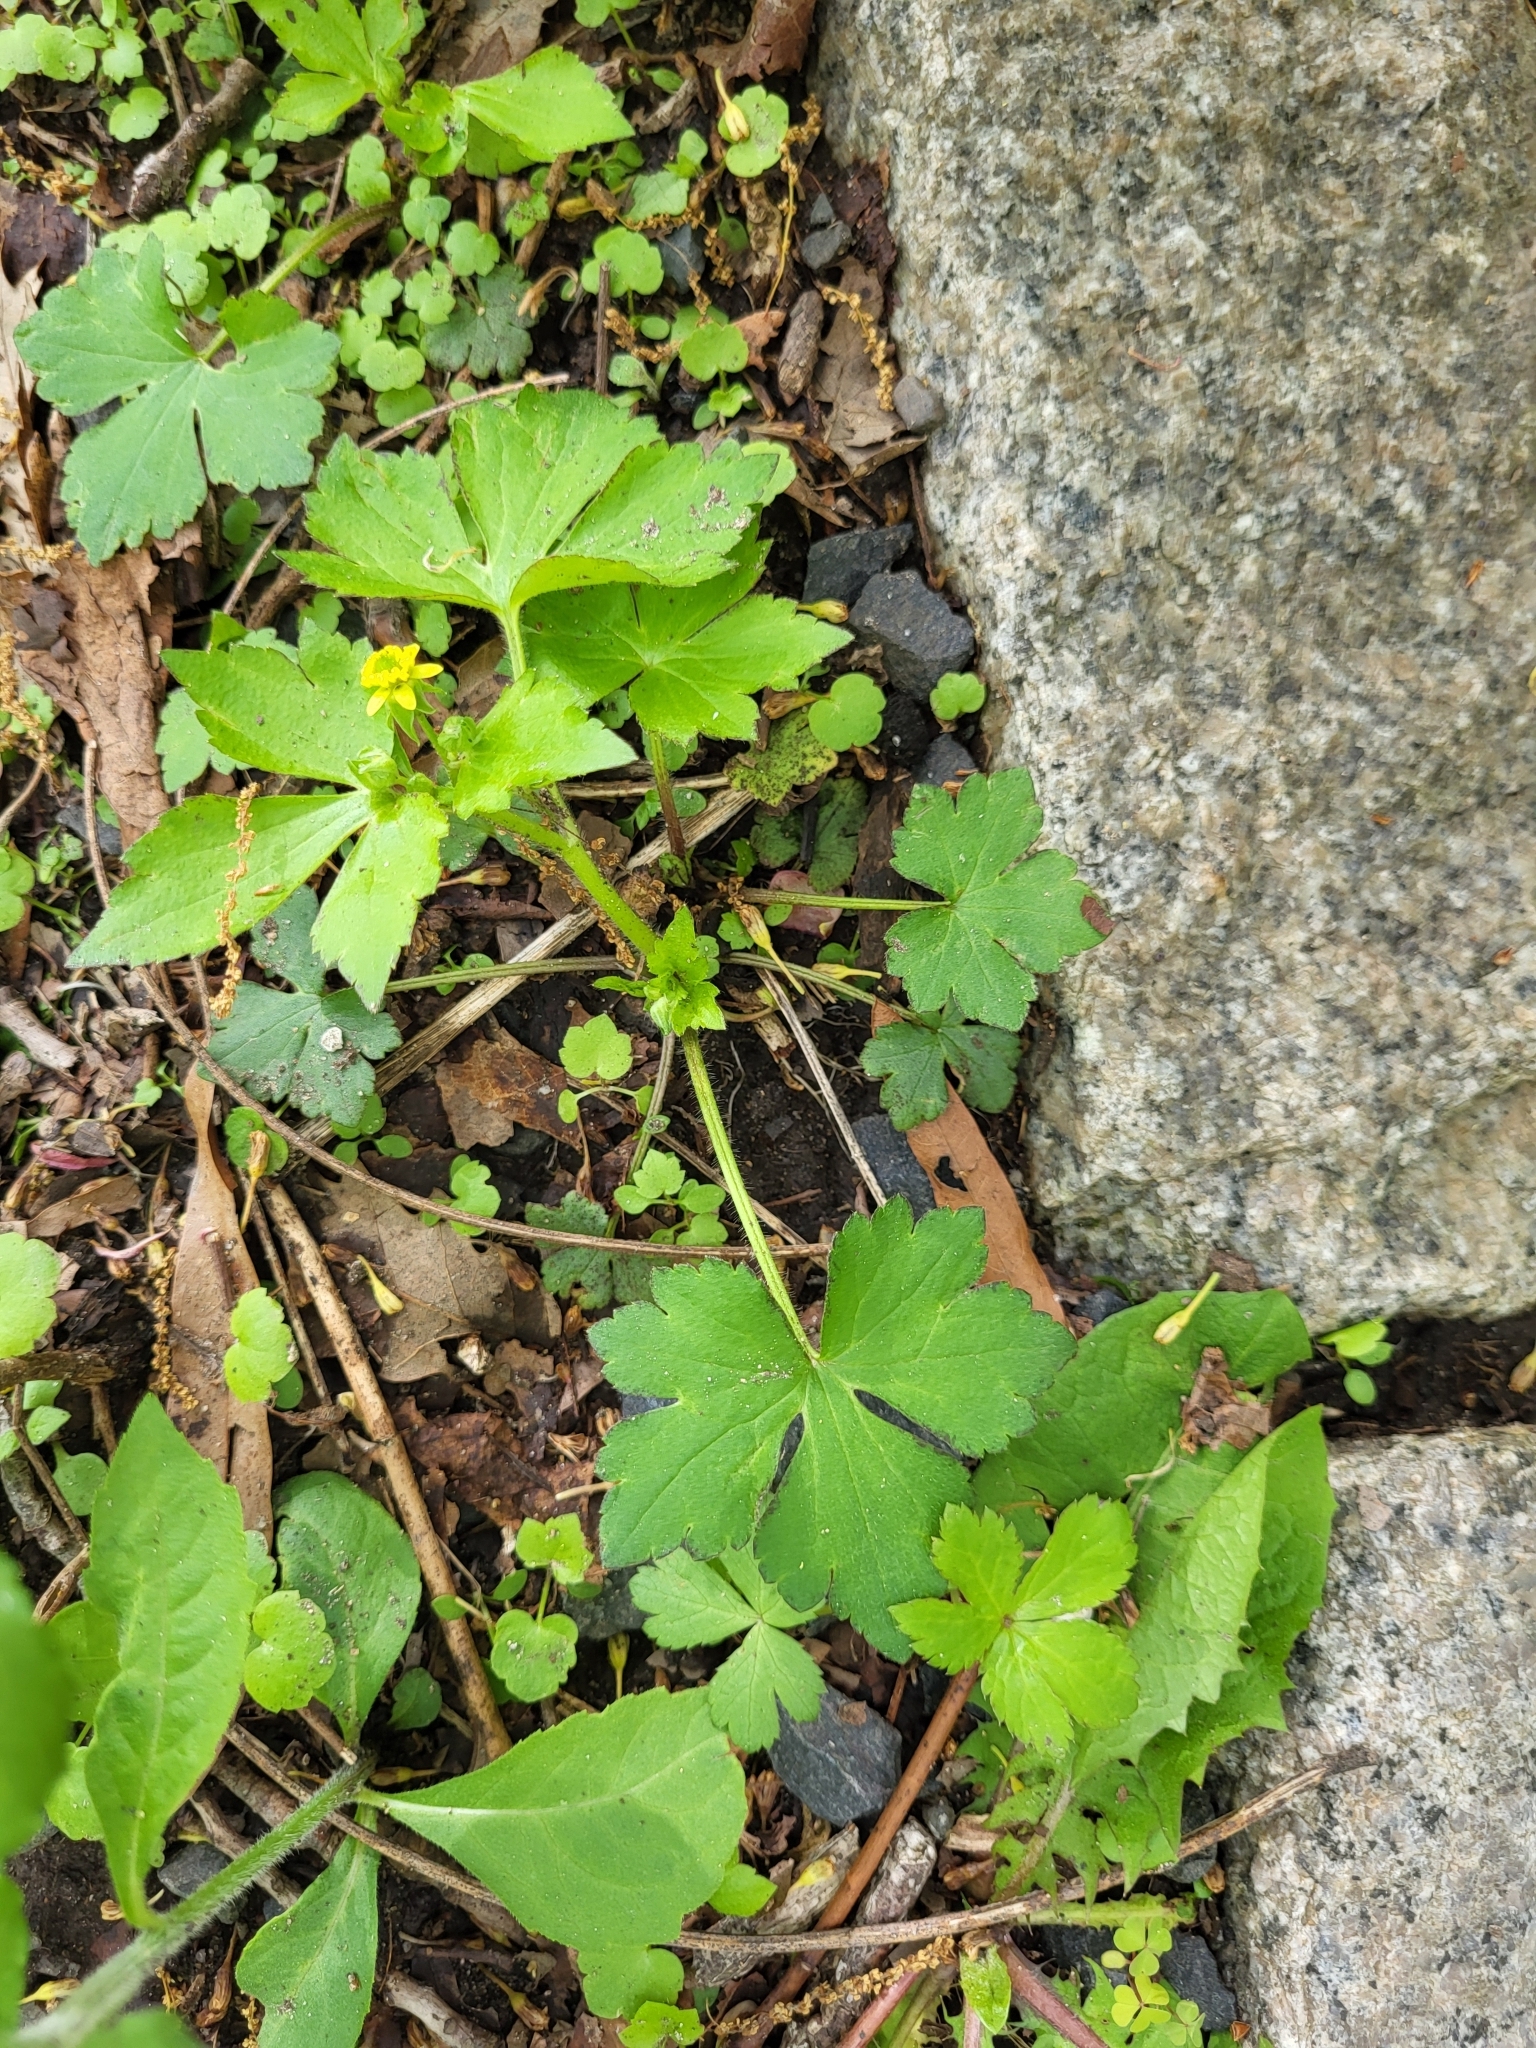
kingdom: Plantae
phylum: Tracheophyta
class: Magnoliopsida
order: Ranunculales
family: Ranunculaceae
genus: Ranunculus
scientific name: Ranunculus recurvatus
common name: Blisterwort
